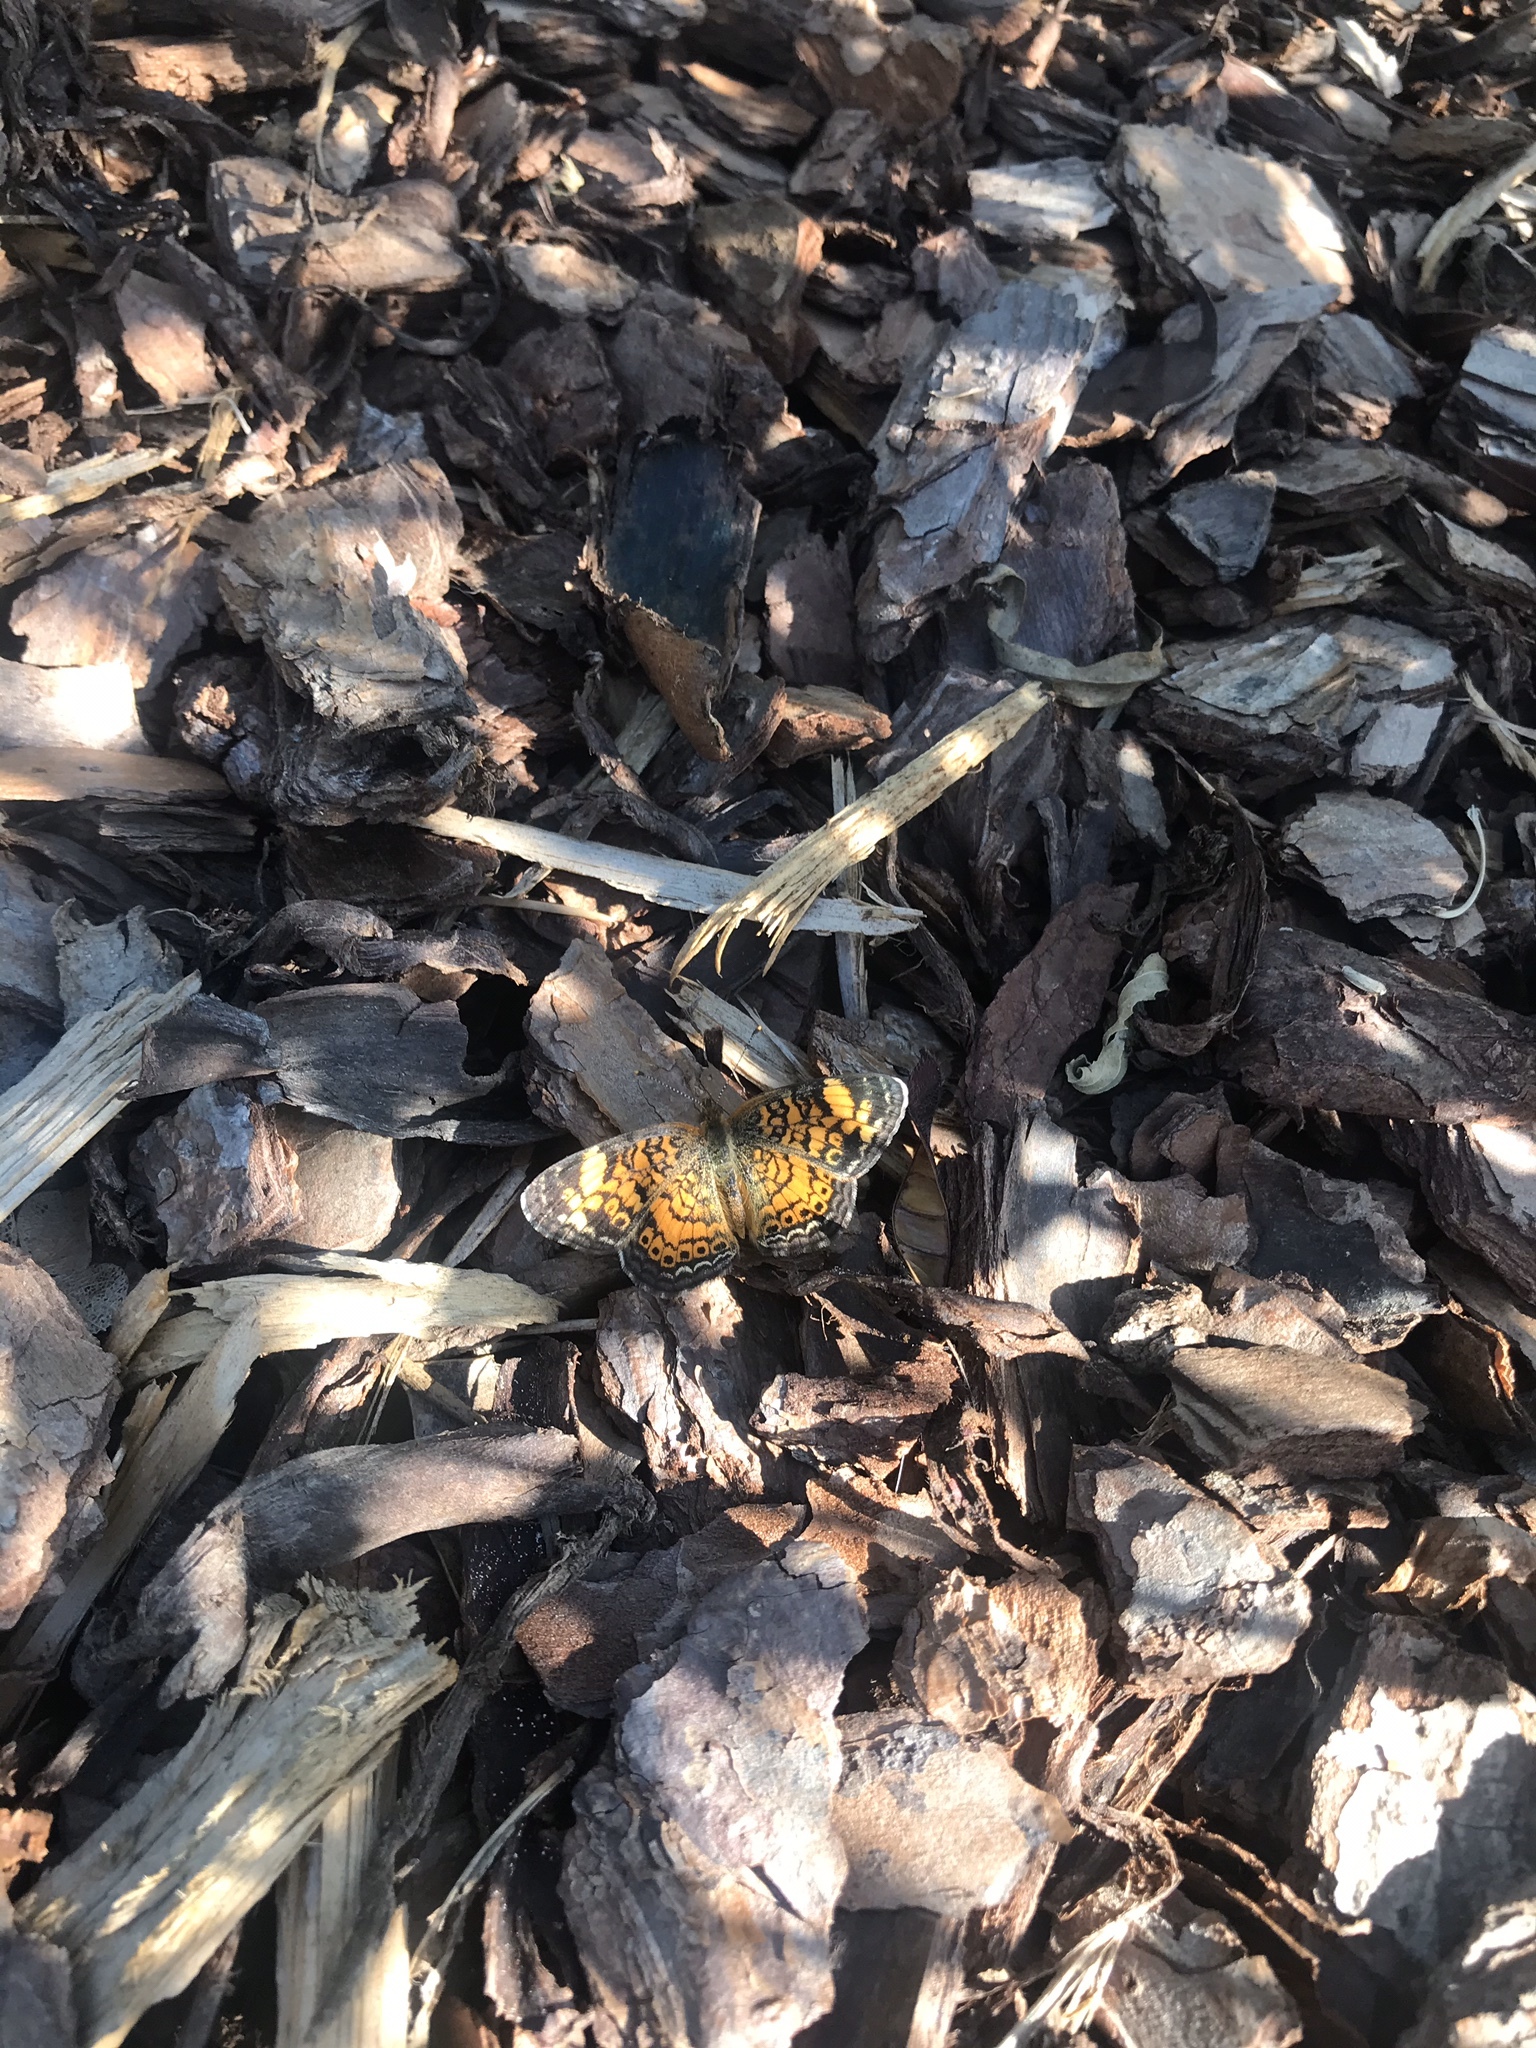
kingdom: Animalia
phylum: Arthropoda
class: Insecta
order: Lepidoptera
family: Nymphalidae
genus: Phyciodes
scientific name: Phyciodes tharos
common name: Pearl crescent
